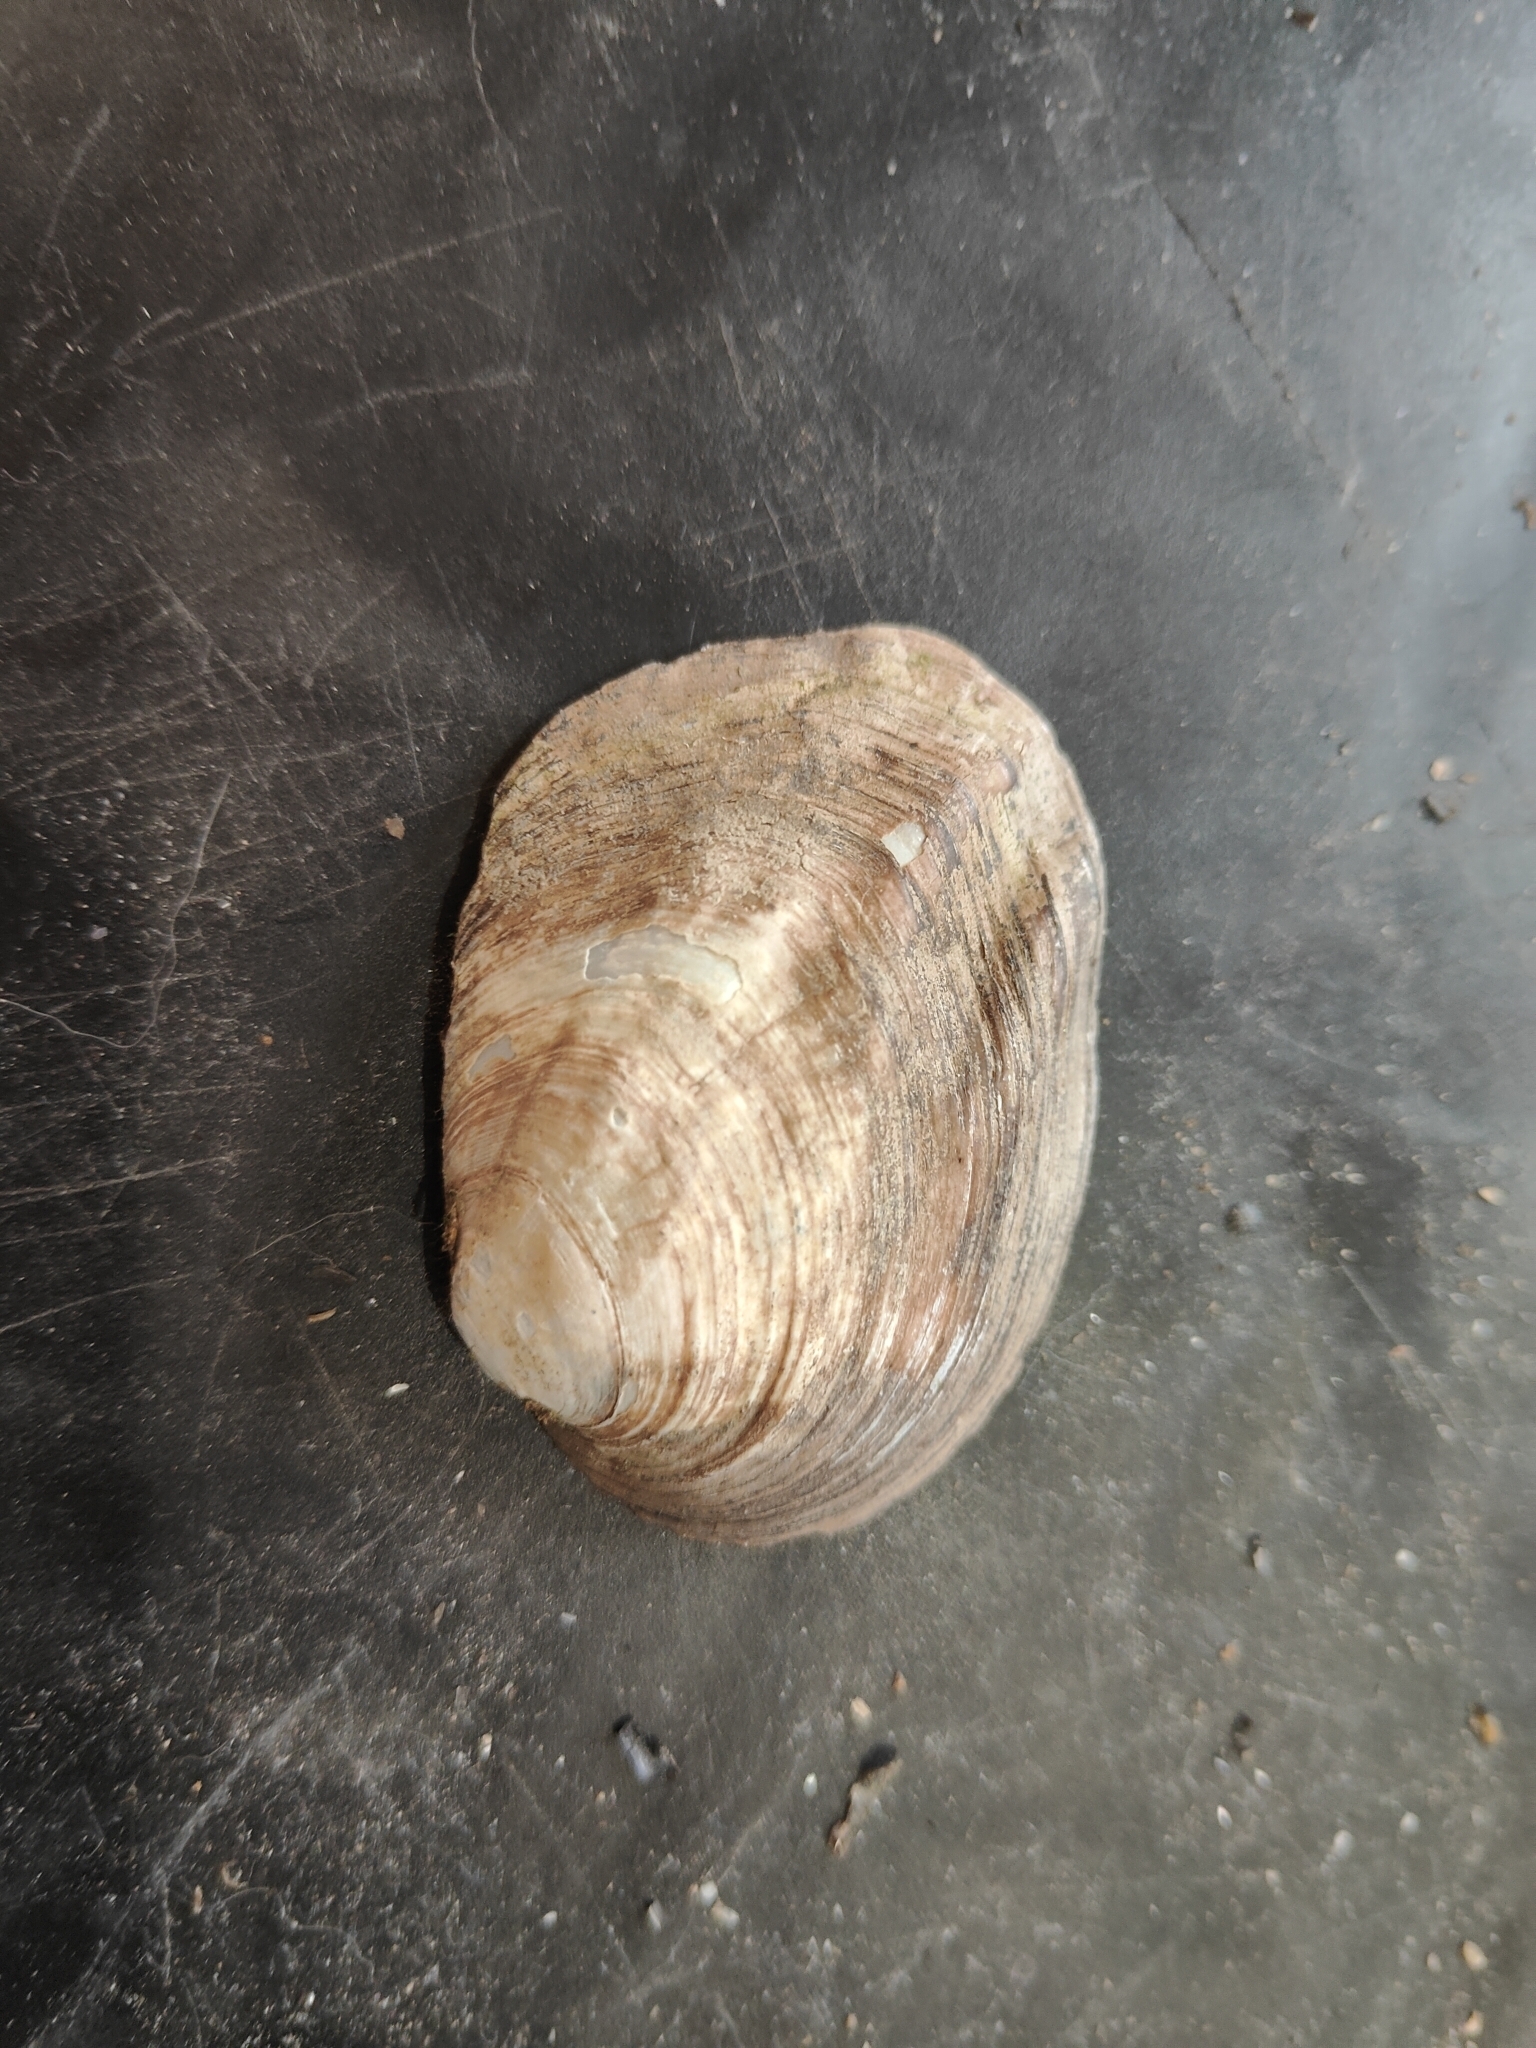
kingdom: Animalia
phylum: Mollusca
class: Bivalvia
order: Unionida
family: Unionidae
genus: Amblema
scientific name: Amblema plicata
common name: Threeridge
